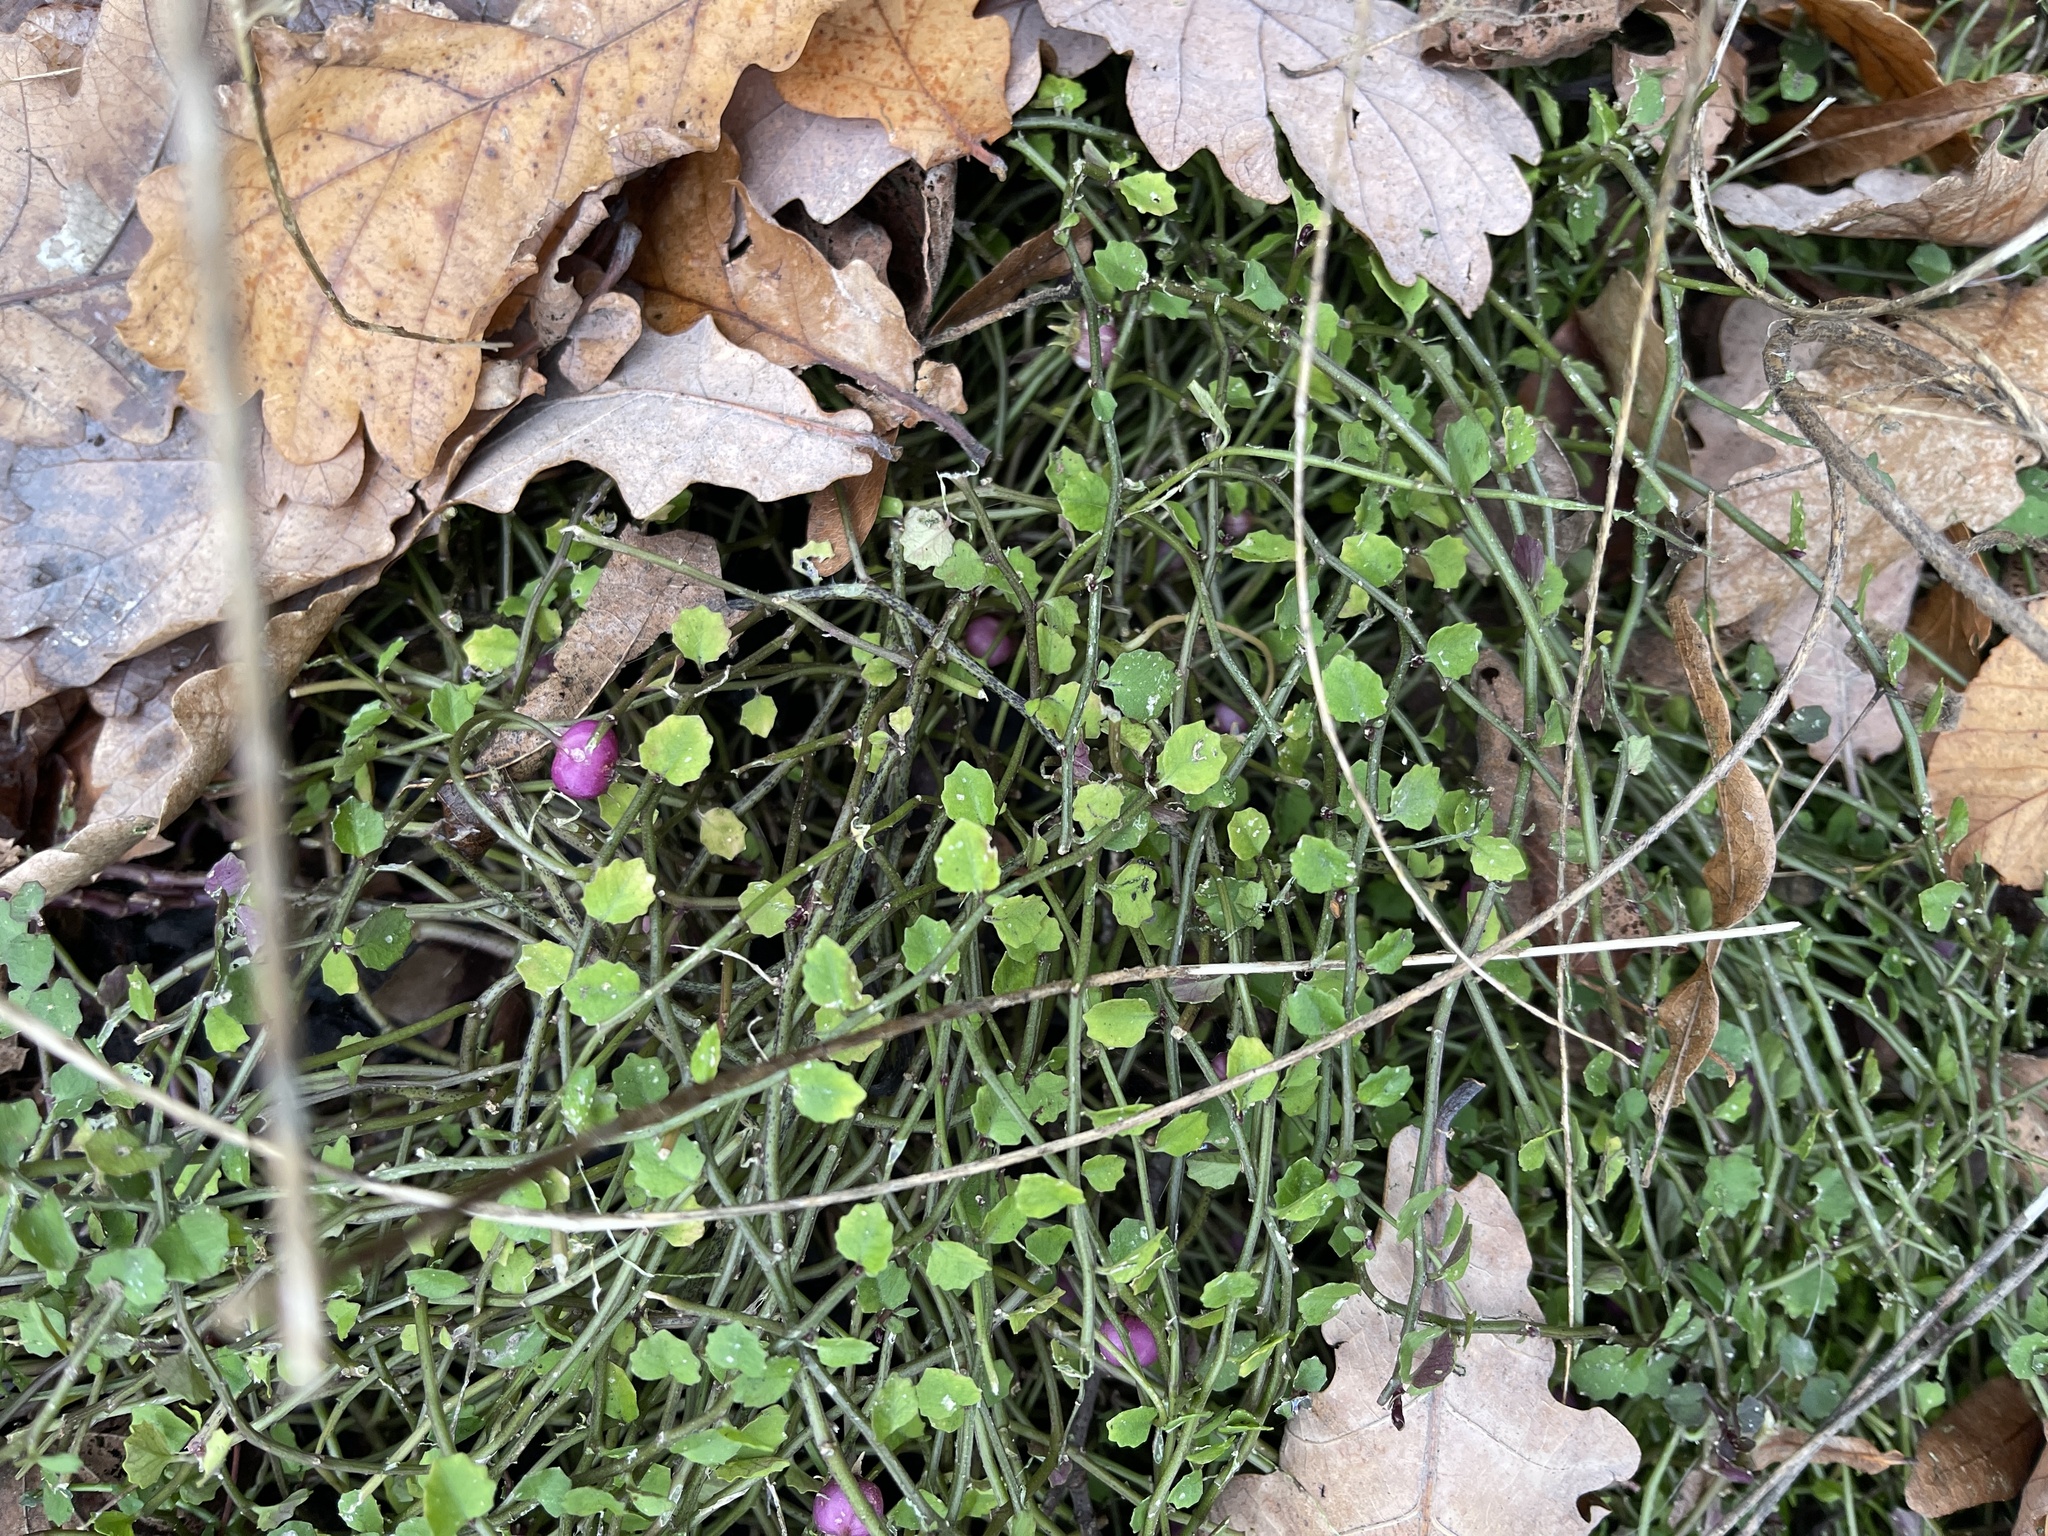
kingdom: Plantae
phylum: Tracheophyta
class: Magnoliopsida
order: Asterales
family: Campanulaceae
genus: Lobelia
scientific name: Lobelia angulata
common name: Lawn lobelia
